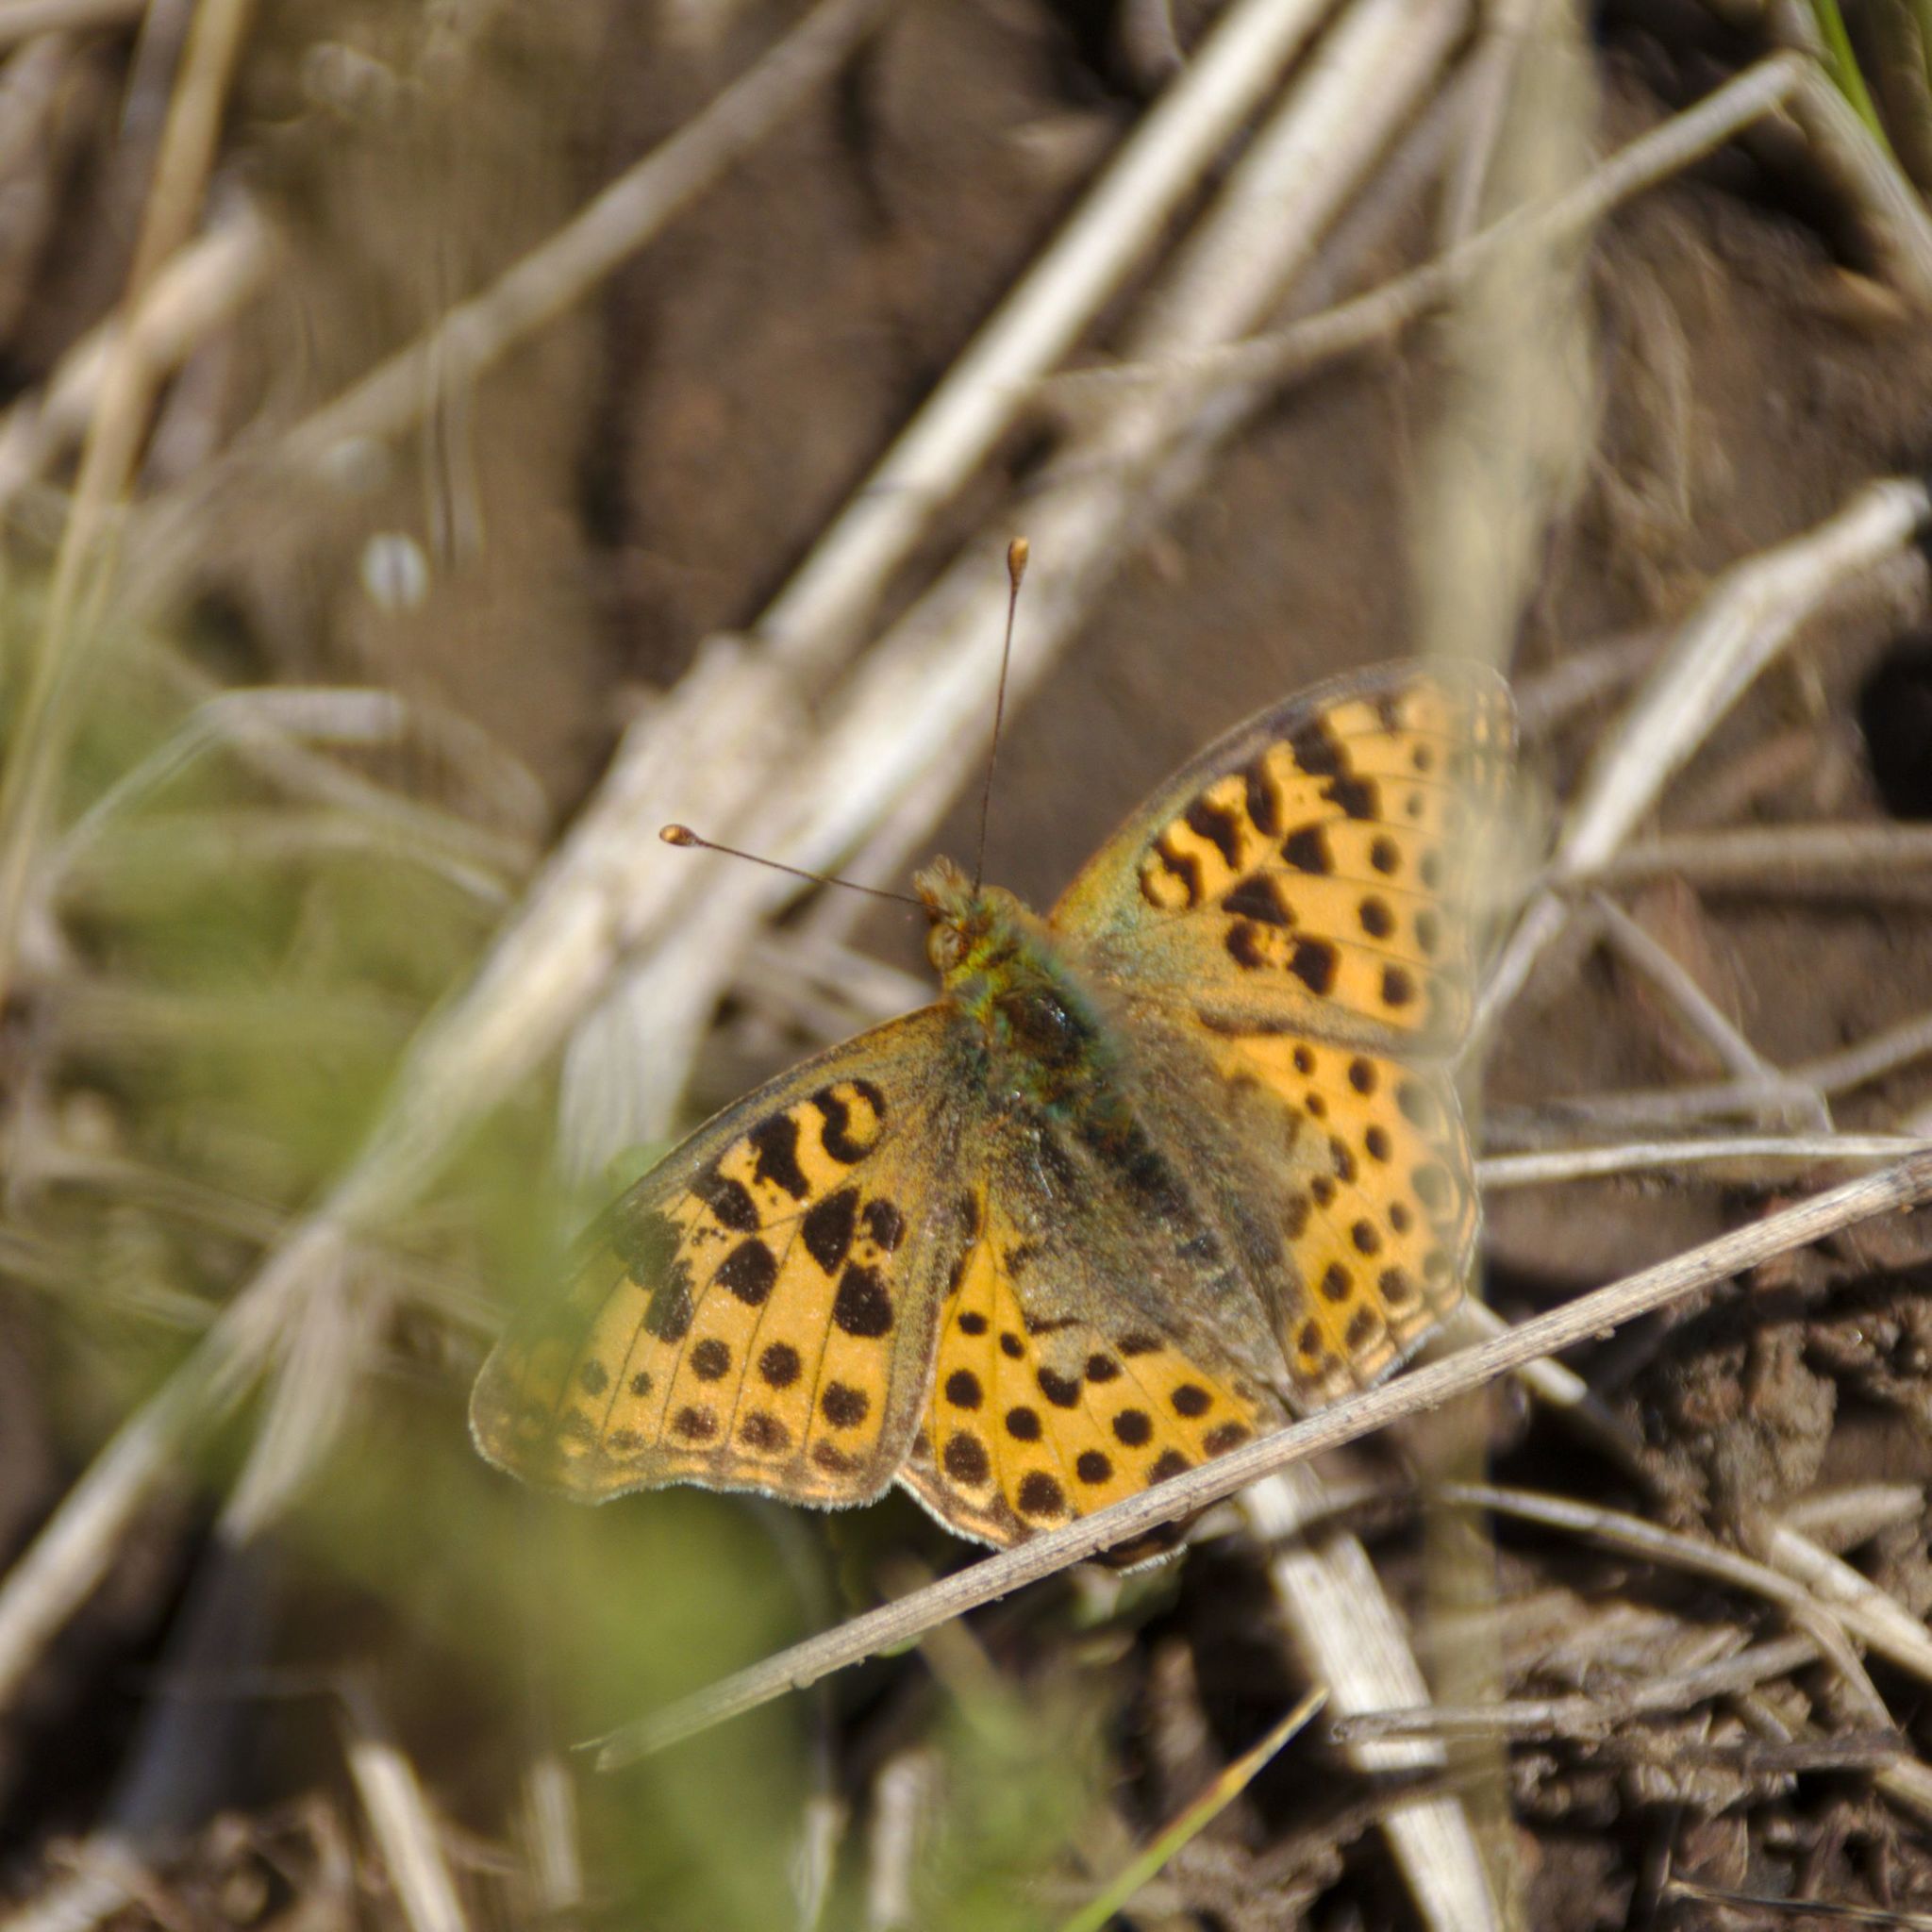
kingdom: Animalia
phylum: Arthropoda
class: Insecta
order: Lepidoptera
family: Nymphalidae
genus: Issoria
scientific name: Issoria lathonia
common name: Queen of spain fritillary
